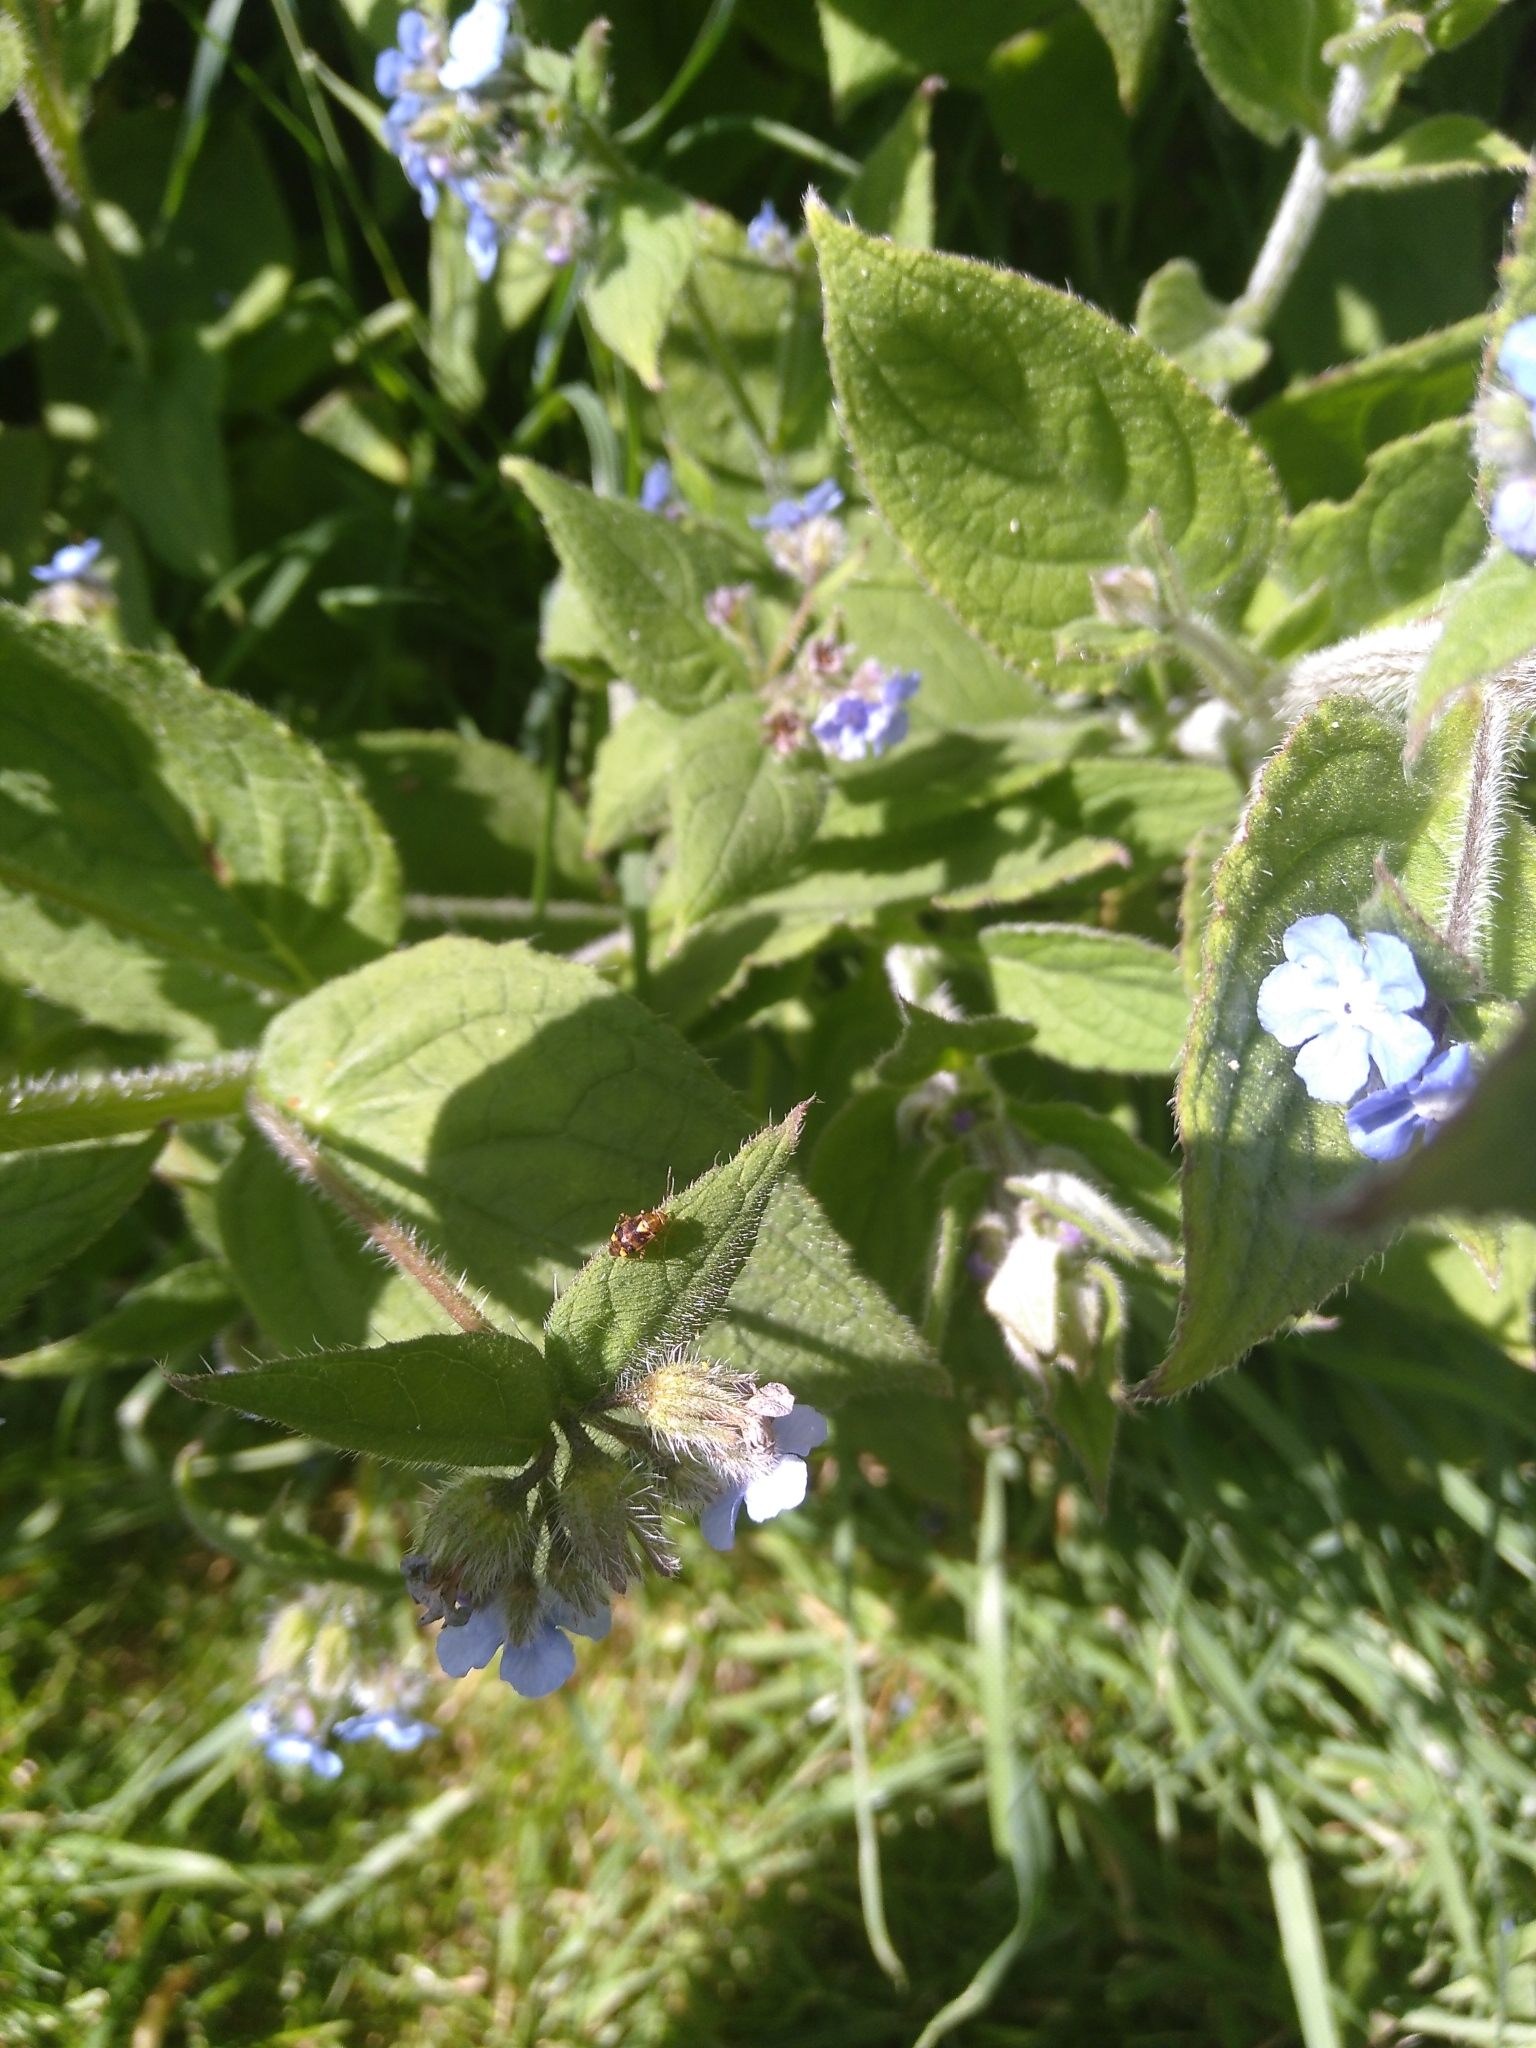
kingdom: Animalia
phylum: Arthropoda
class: Insecta
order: Hemiptera
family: Miridae
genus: Liocoris
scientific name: Liocoris tripustulatus
